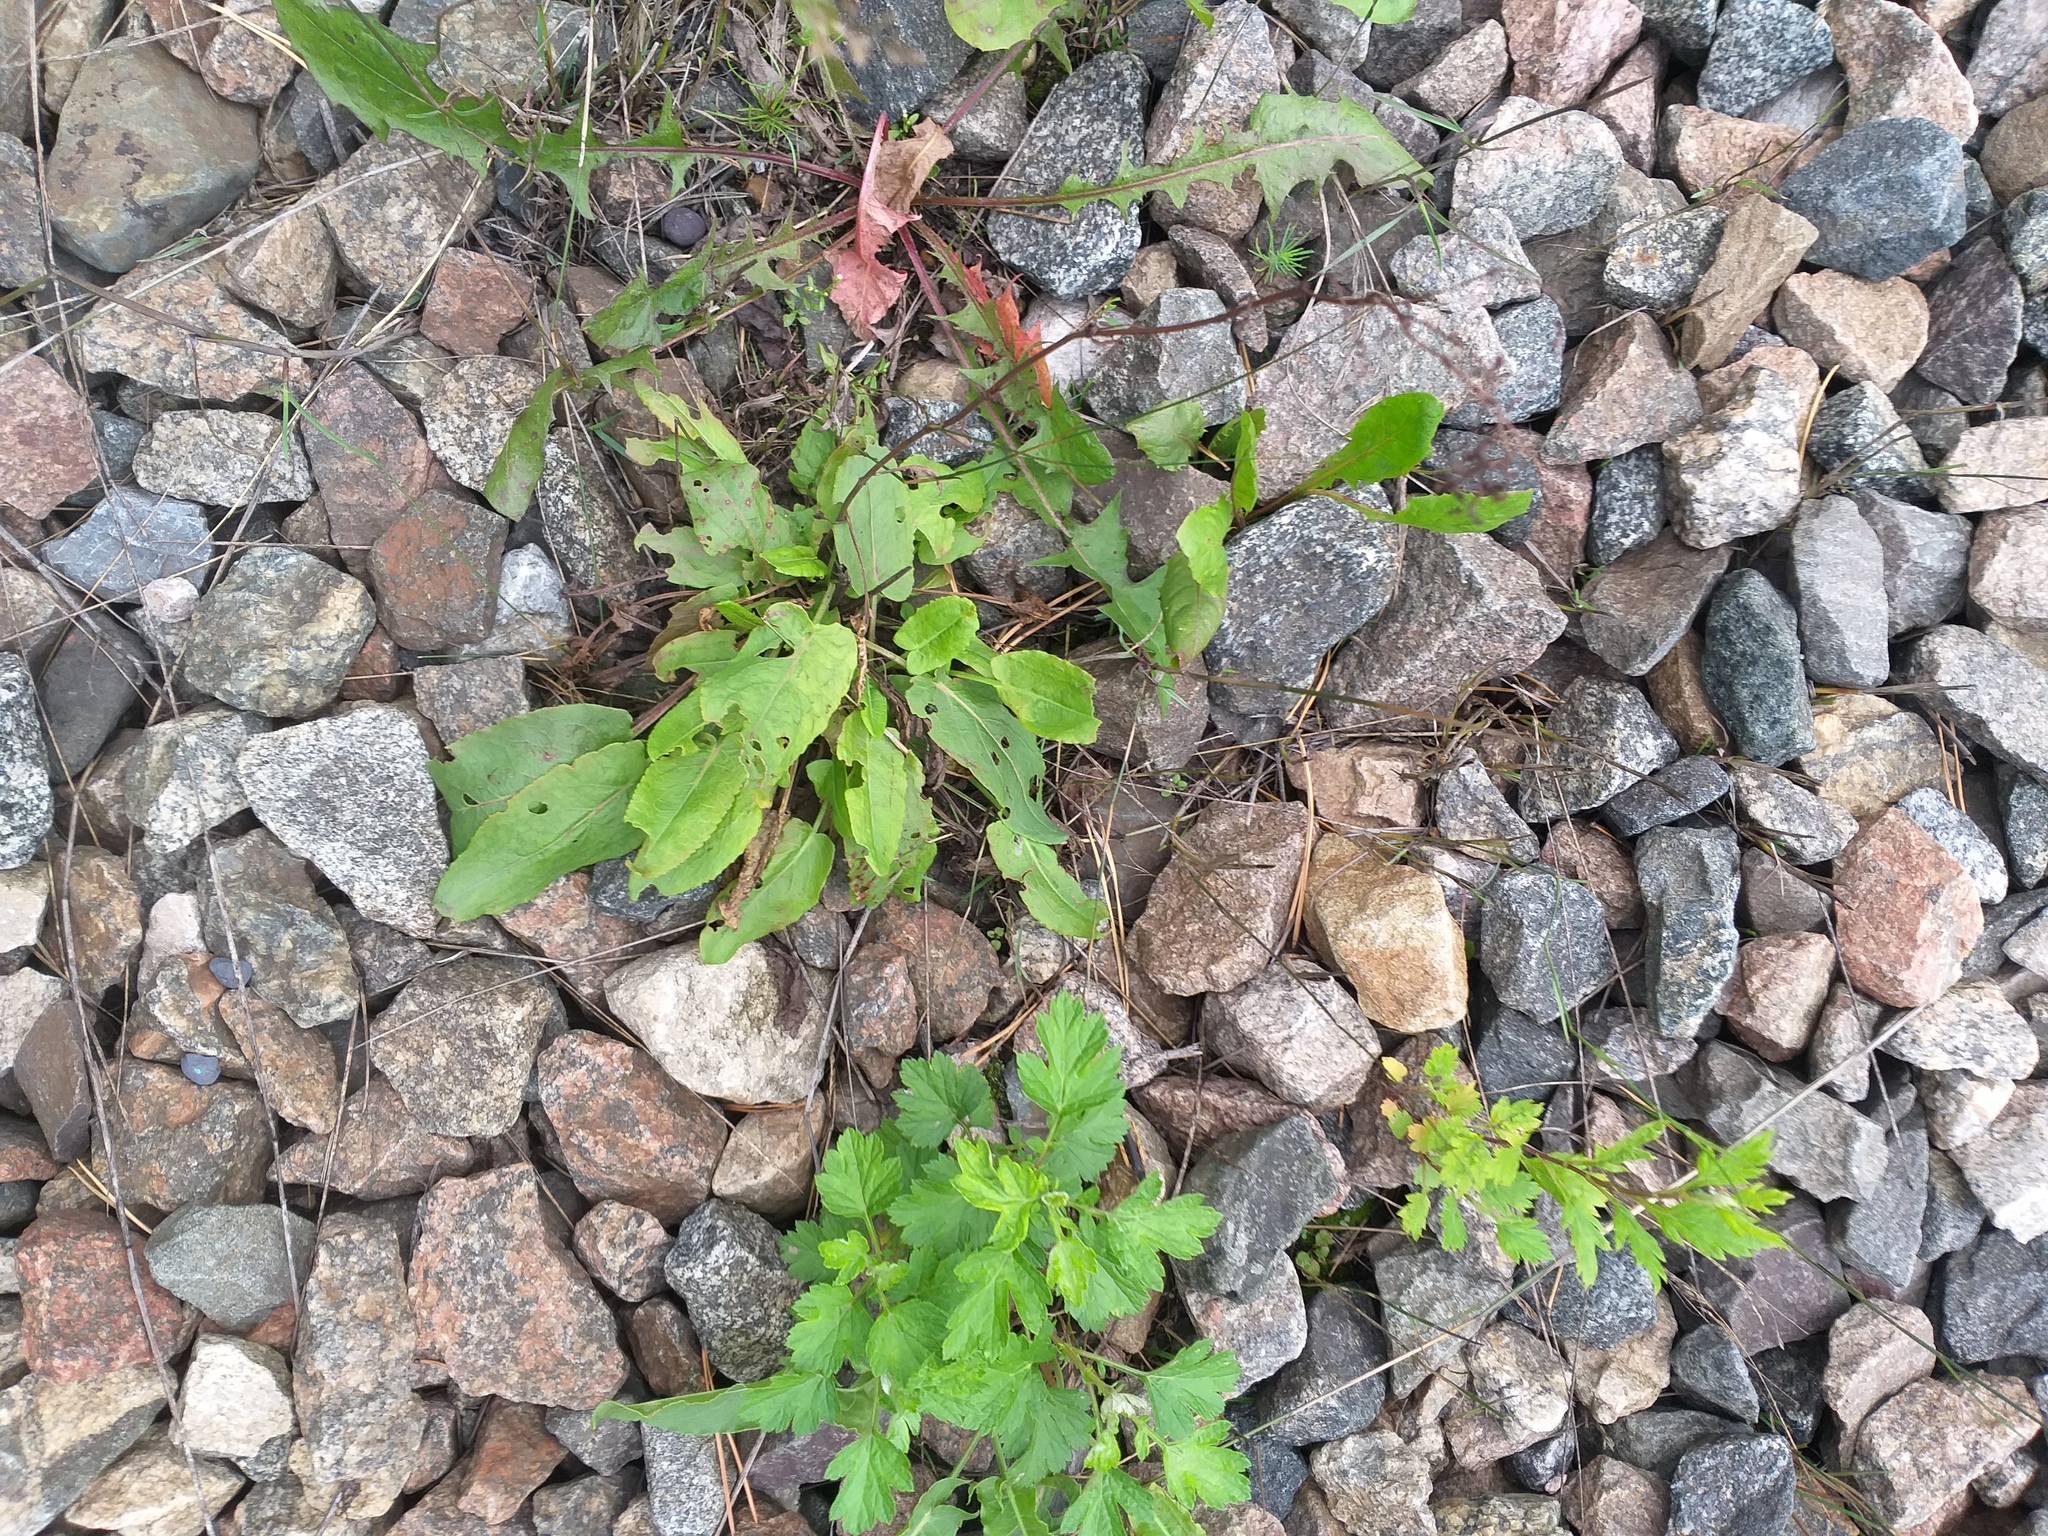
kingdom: Plantae
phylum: Tracheophyta
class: Magnoliopsida
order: Caryophyllales
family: Polygonaceae
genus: Rumex
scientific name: Rumex thyrsiflorus
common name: Garden sorrel
